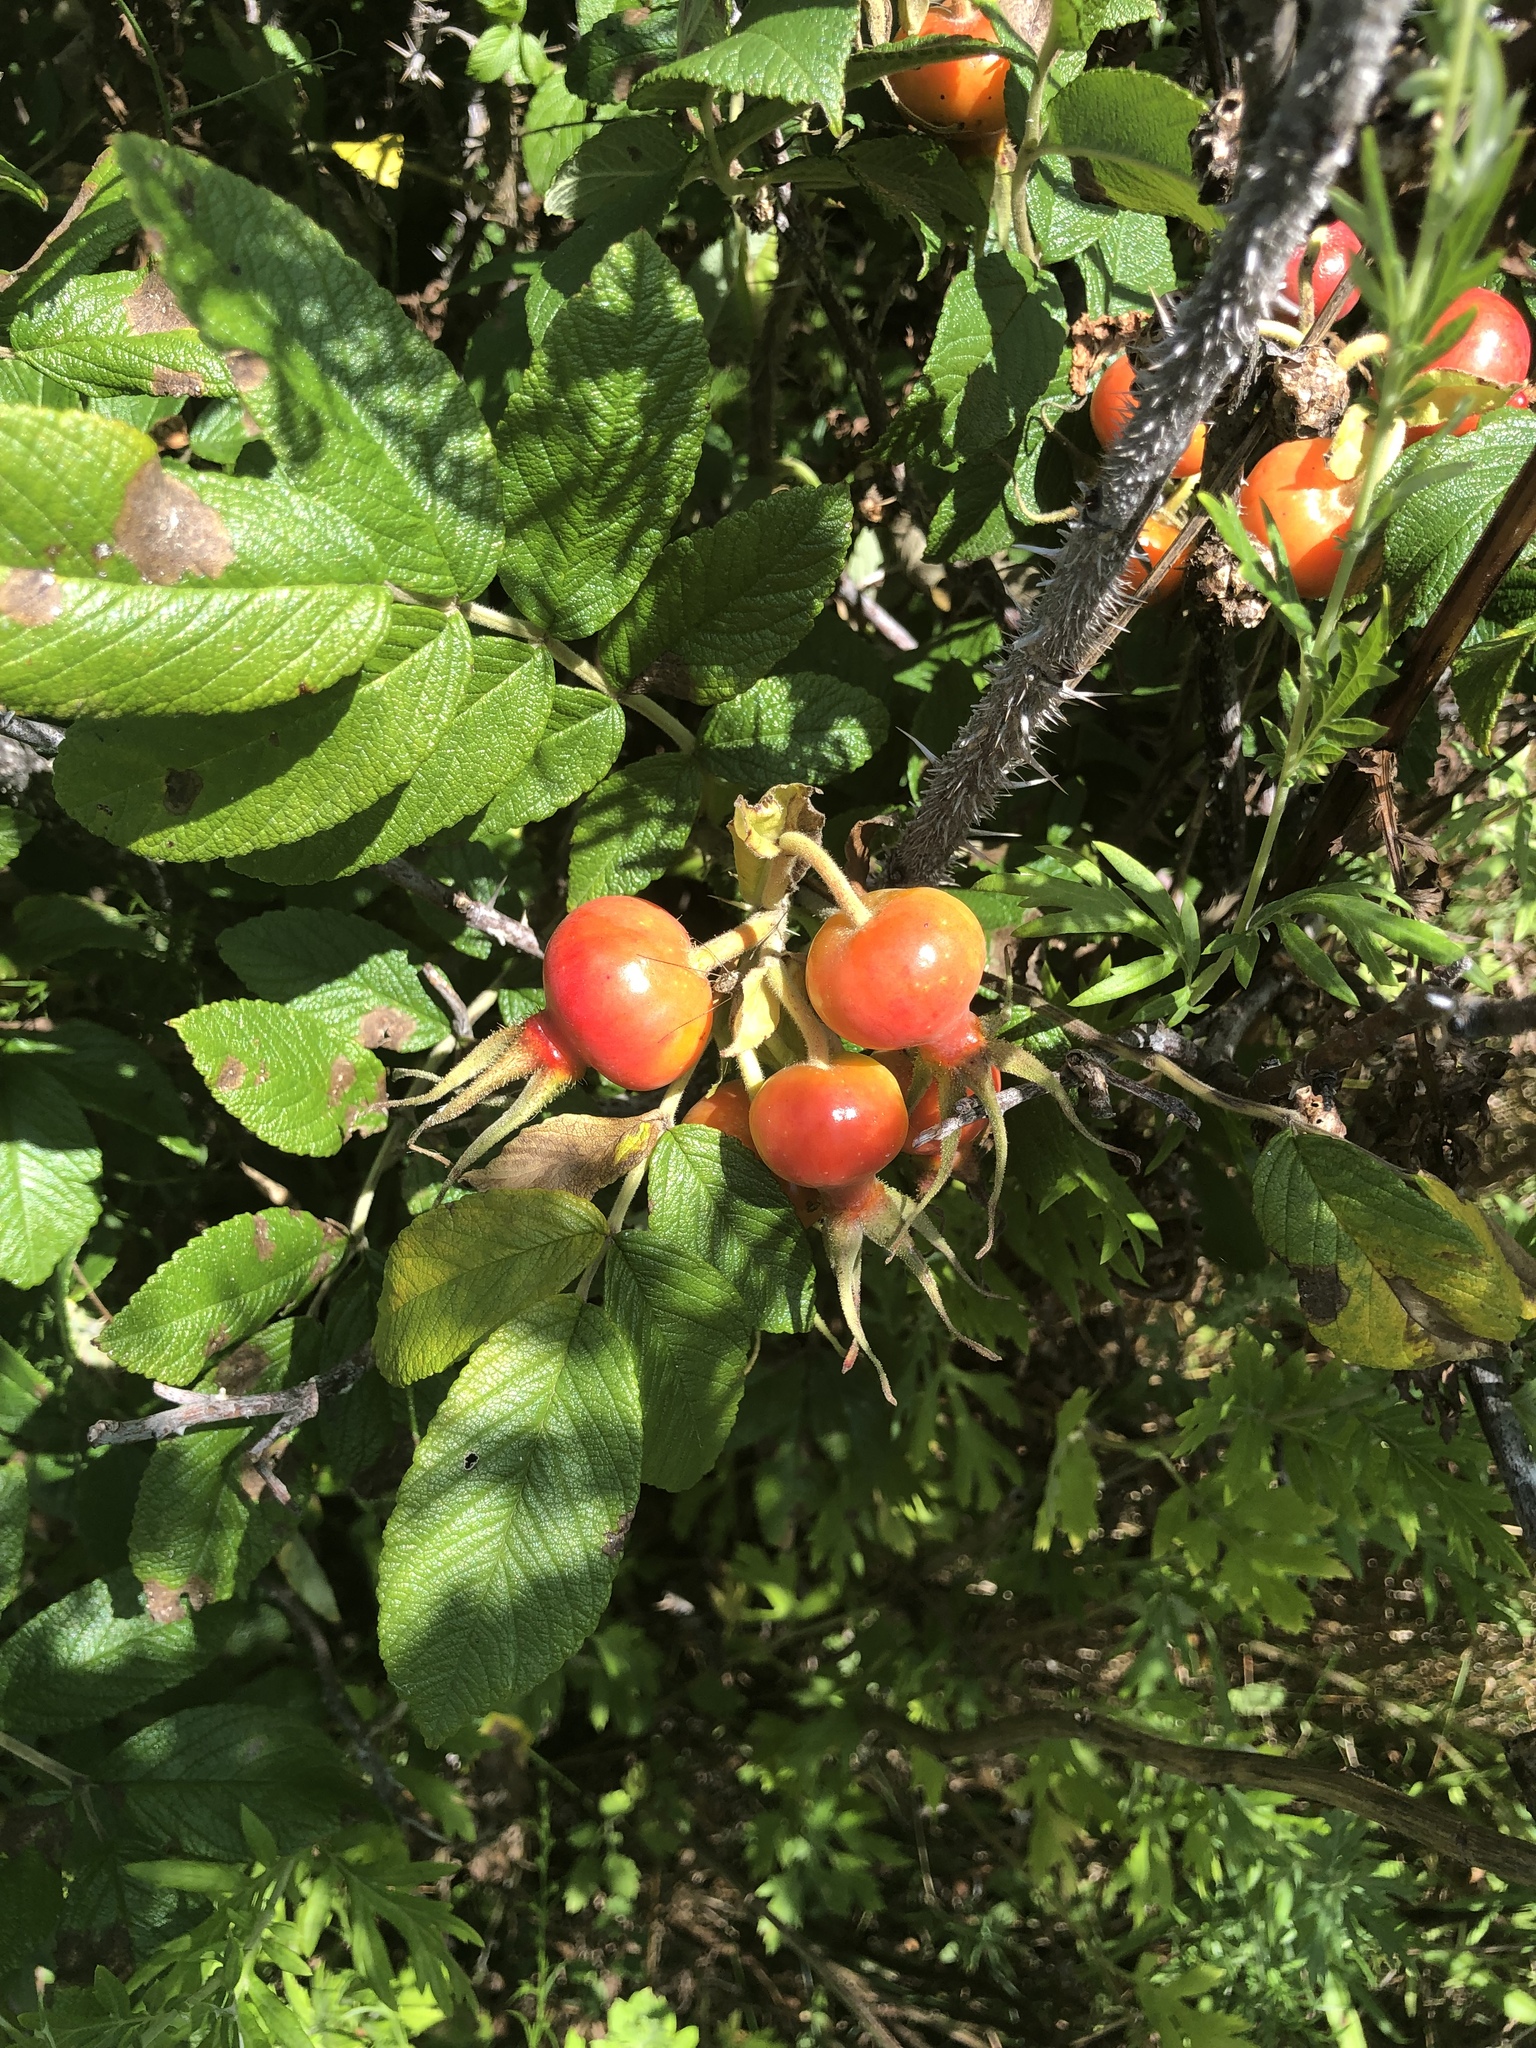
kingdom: Plantae
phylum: Tracheophyta
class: Magnoliopsida
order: Rosales
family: Rosaceae
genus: Rosa
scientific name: Rosa rugosa
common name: Japanese rose
